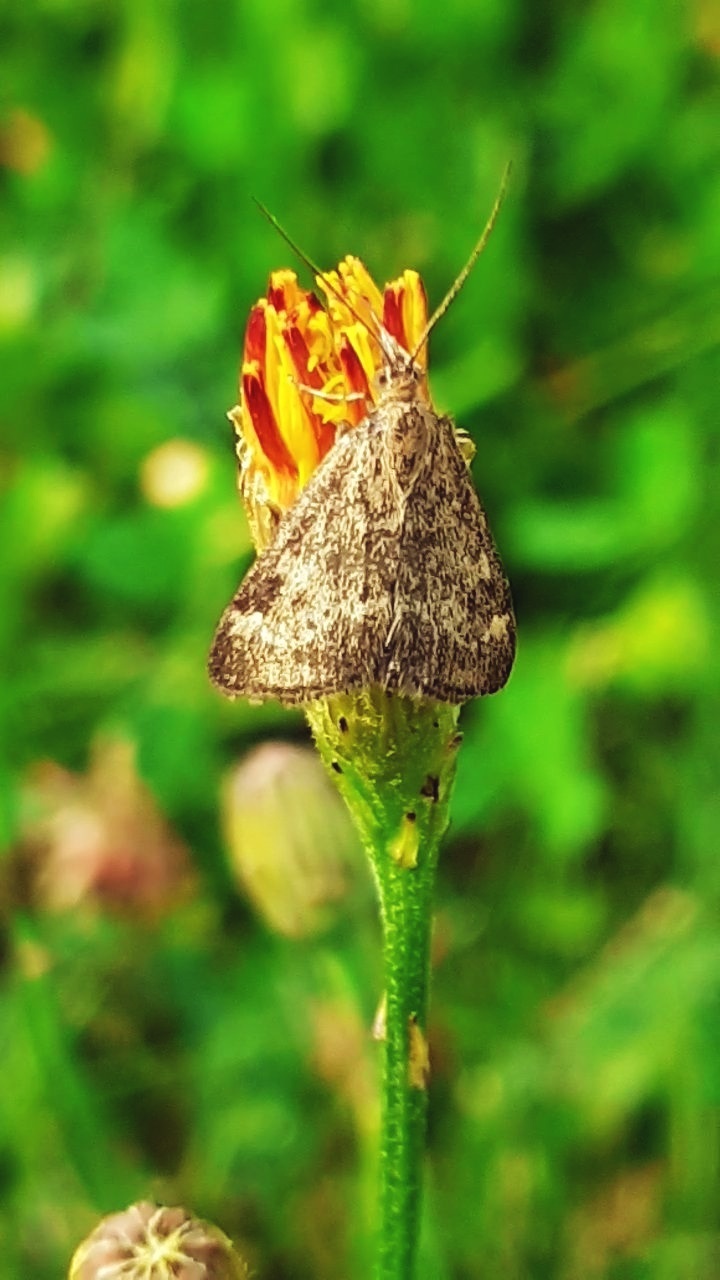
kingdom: Animalia
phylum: Arthropoda
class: Insecta
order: Lepidoptera
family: Crambidae
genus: Pyrausta
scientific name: Pyrausta despicata
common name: Straw-barred pearl
